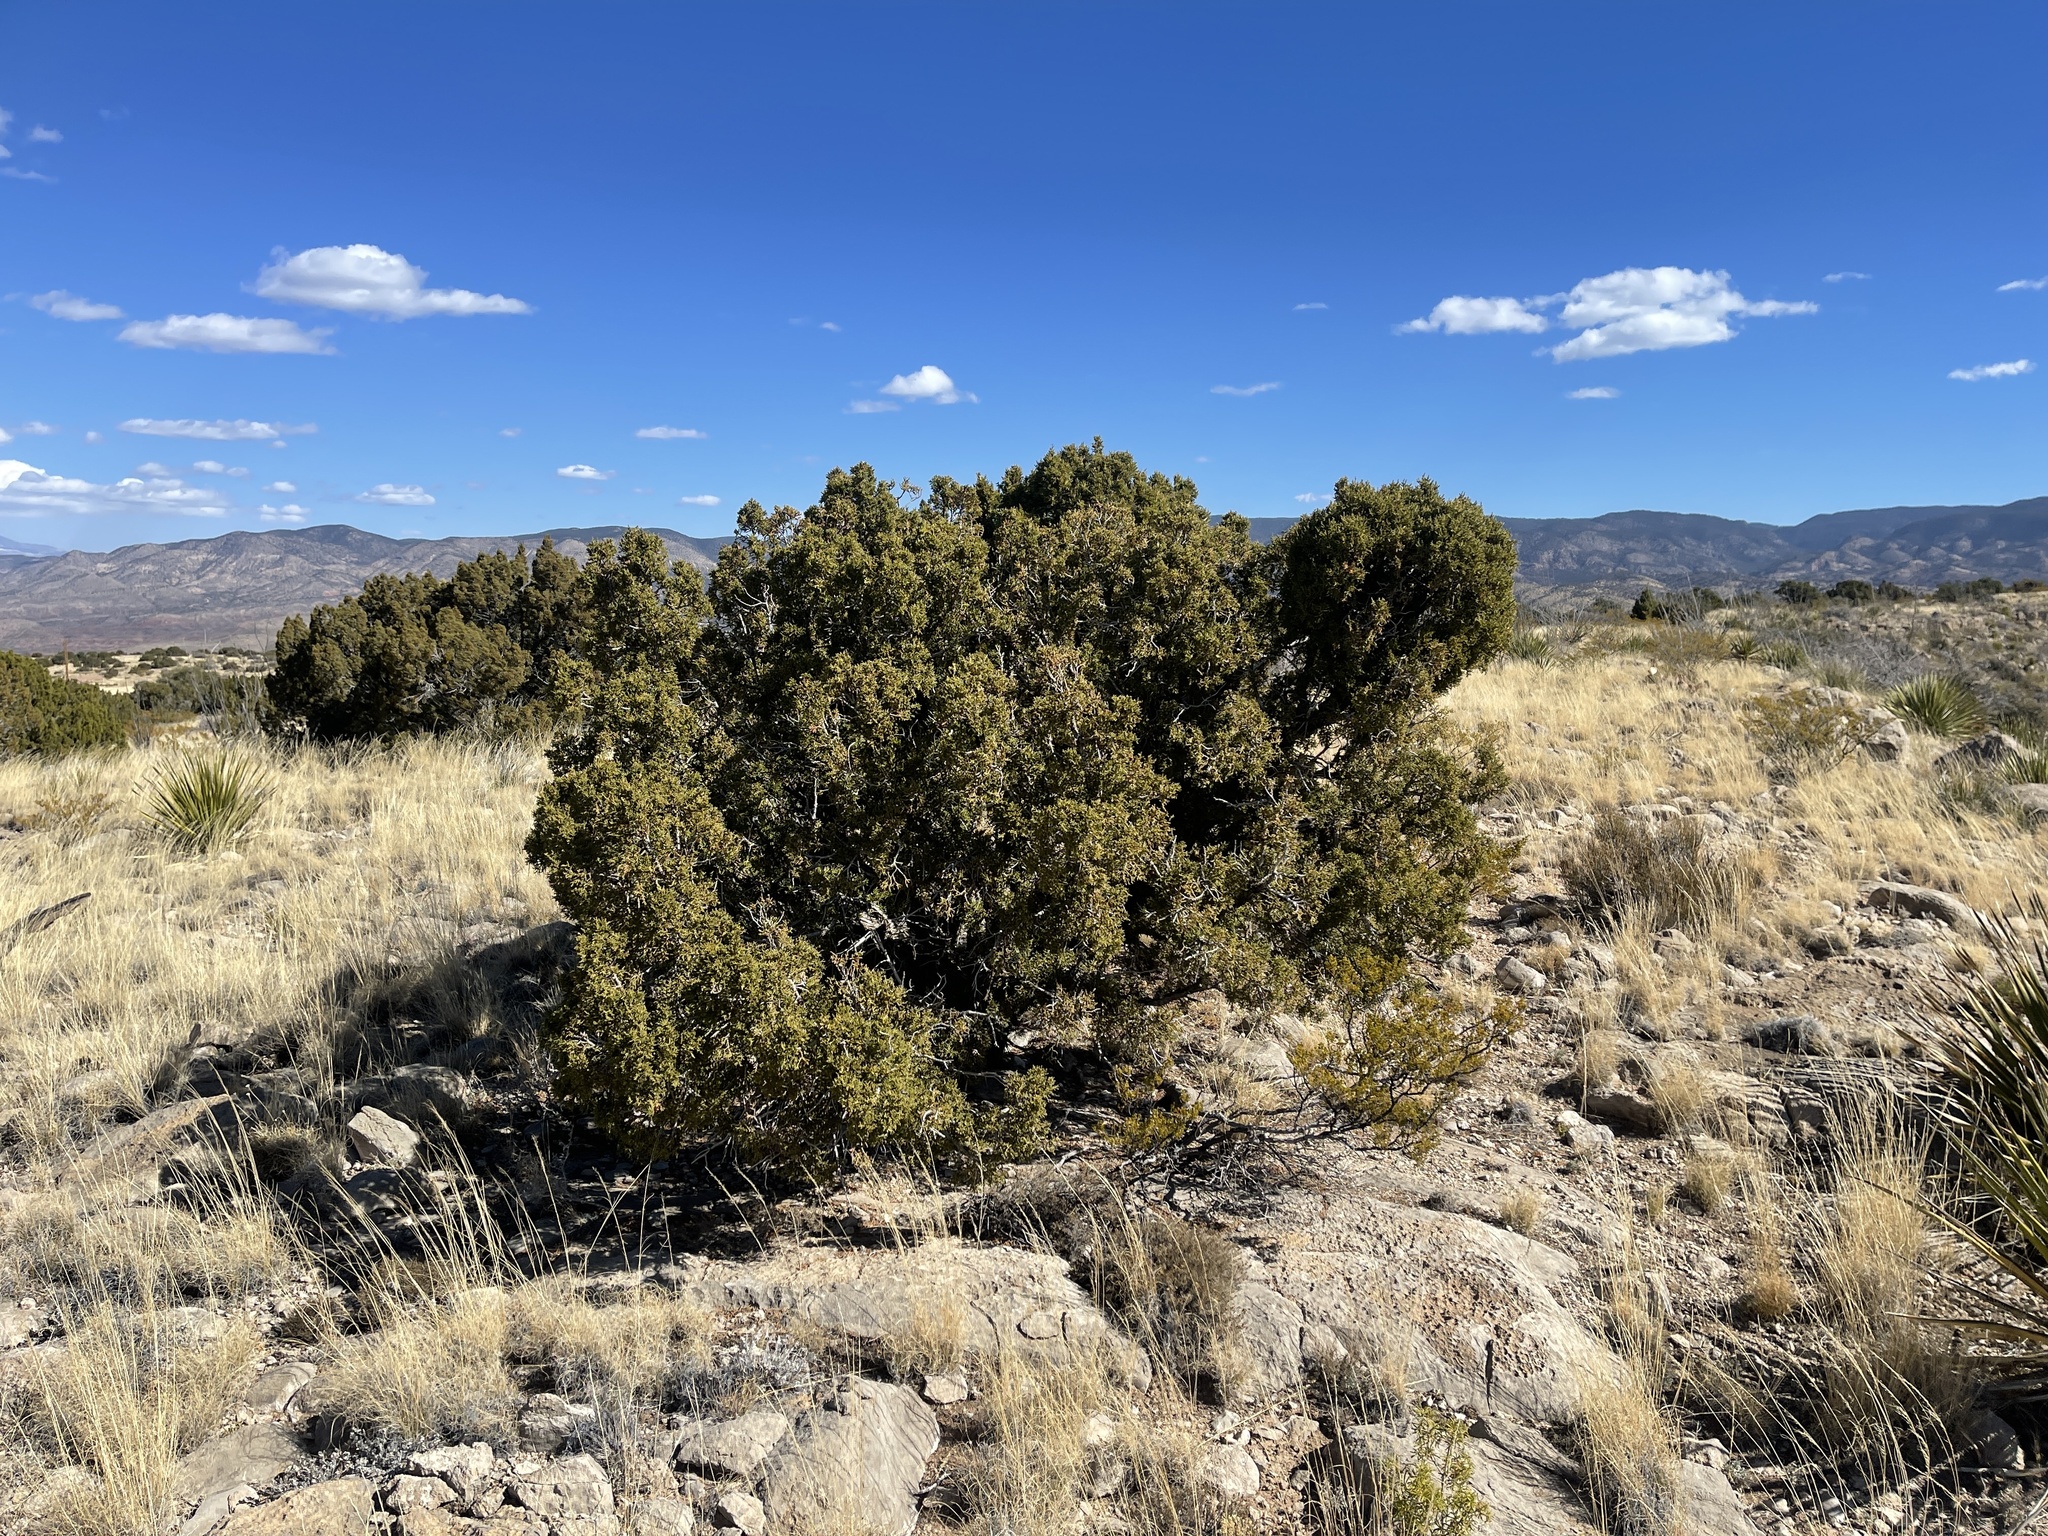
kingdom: Plantae
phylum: Tracheophyta
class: Pinopsida
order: Pinales
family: Cupressaceae
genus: Juniperus
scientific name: Juniperus monosperma
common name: One-seed juniper
